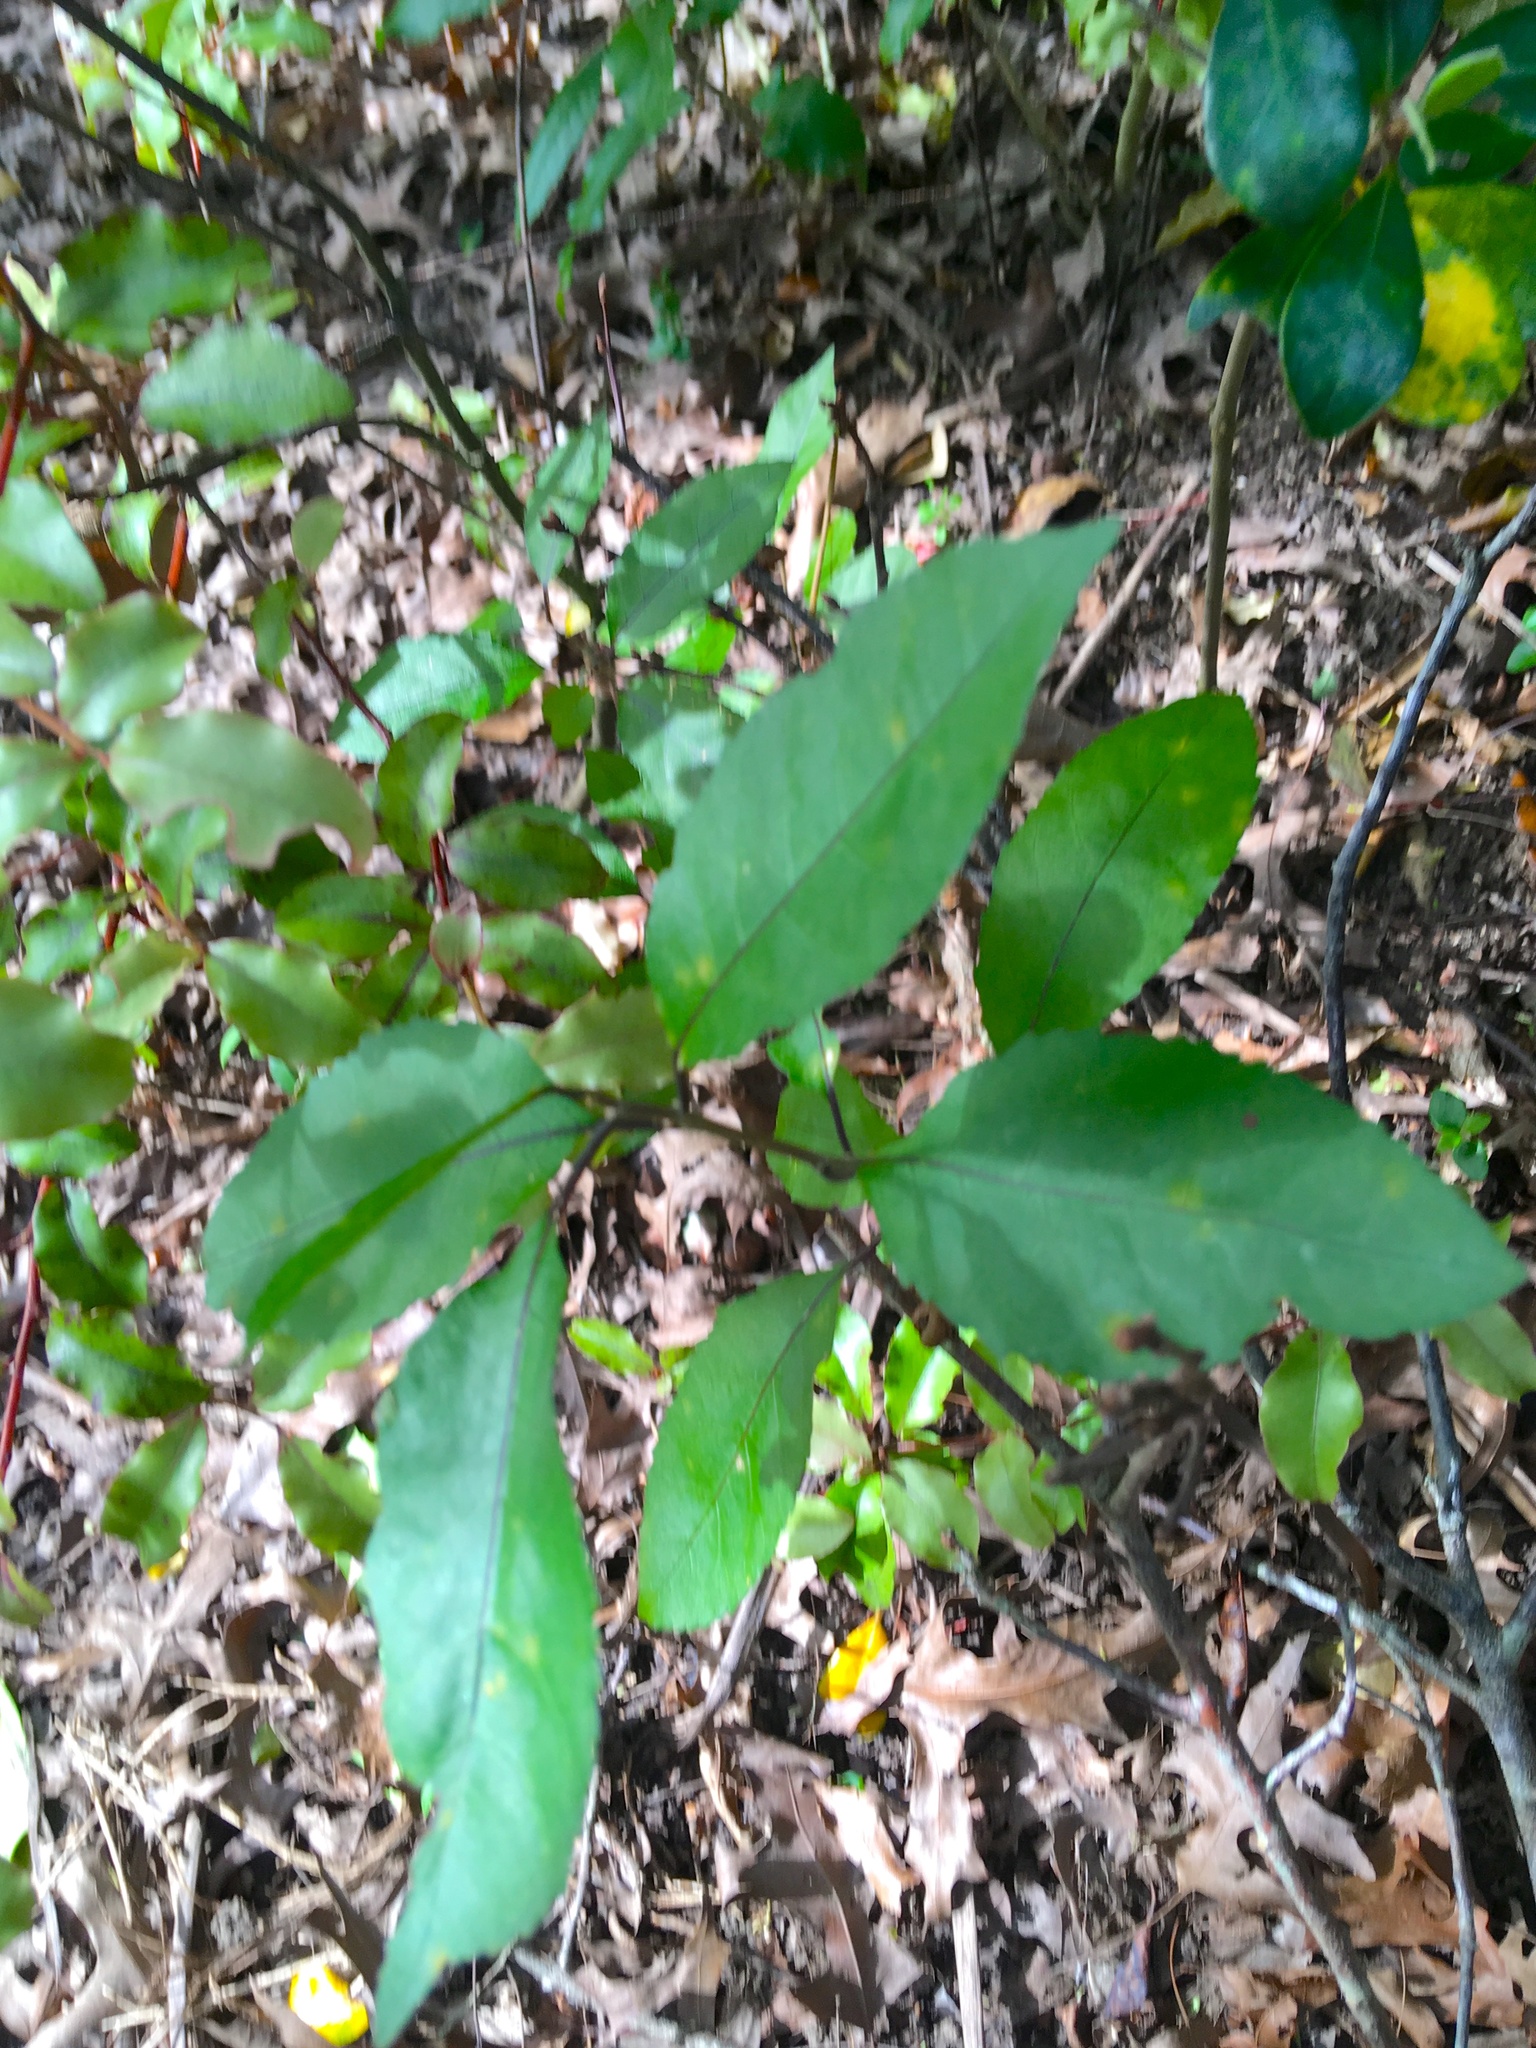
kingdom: Plantae
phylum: Tracheophyta
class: Magnoliopsida
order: Malpighiales
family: Violaceae
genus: Melicytus
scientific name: Melicytus ramiflorus
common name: Mahoe
